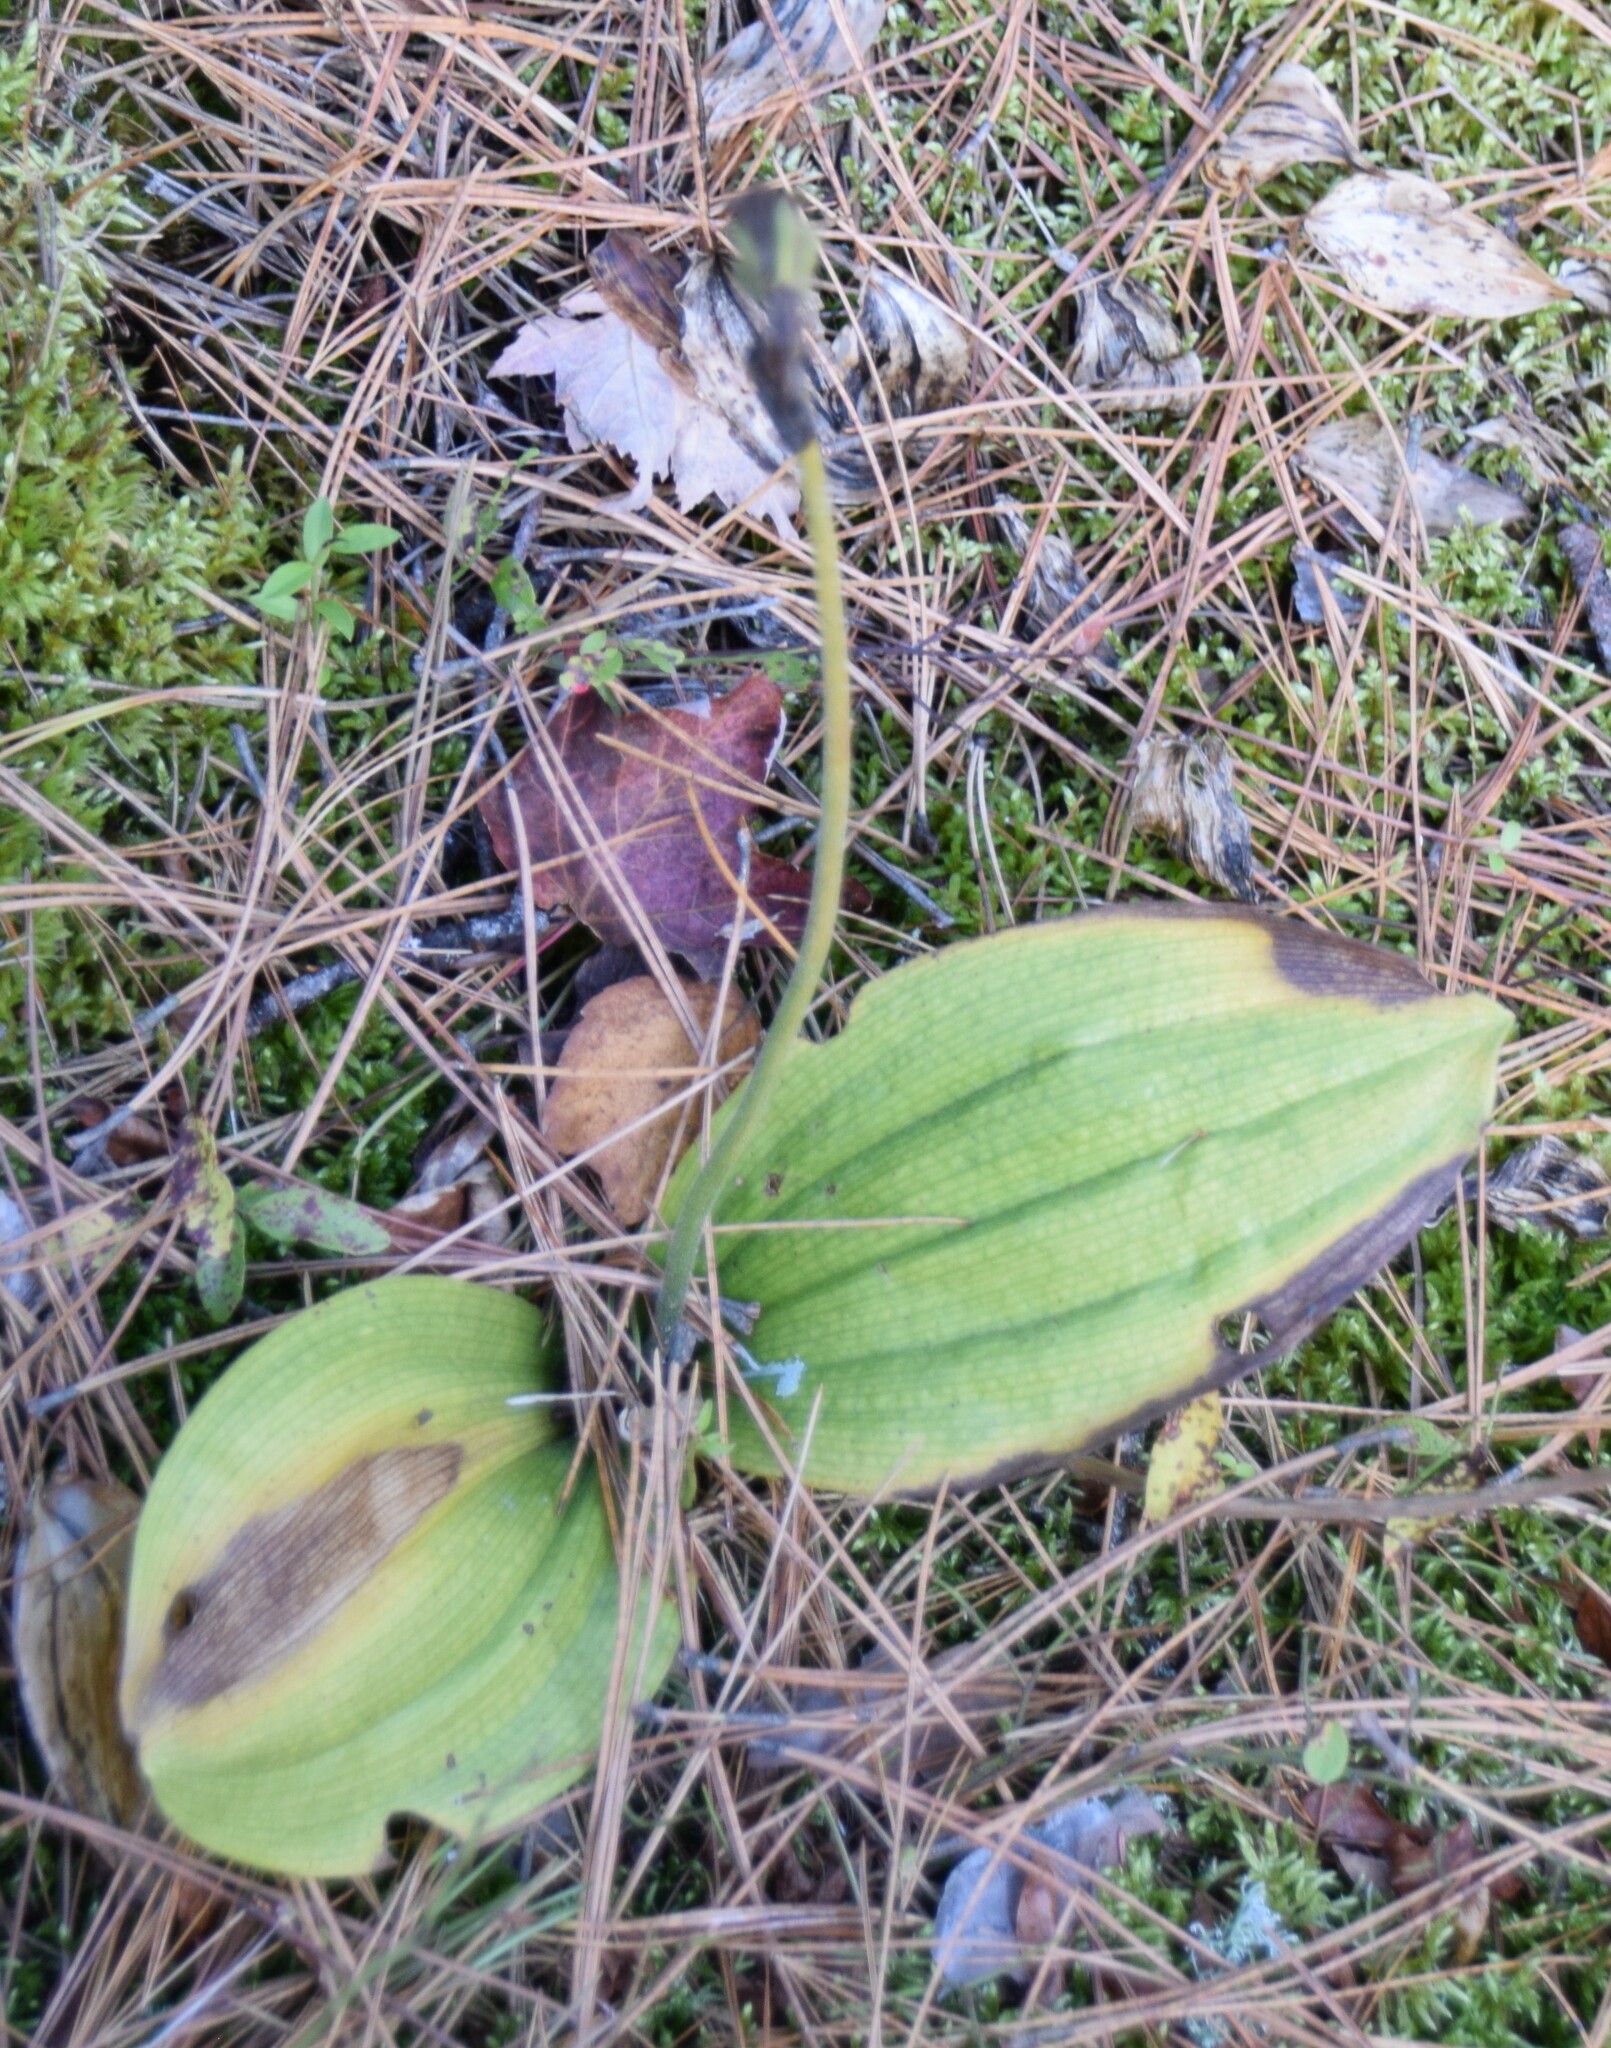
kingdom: Plantae
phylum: Tracheophyta
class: Liliopsida
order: Asparagales
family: Orchidaceae
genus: Cypripedium
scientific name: Cypripedium acaule
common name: Pink lady's-slipper
